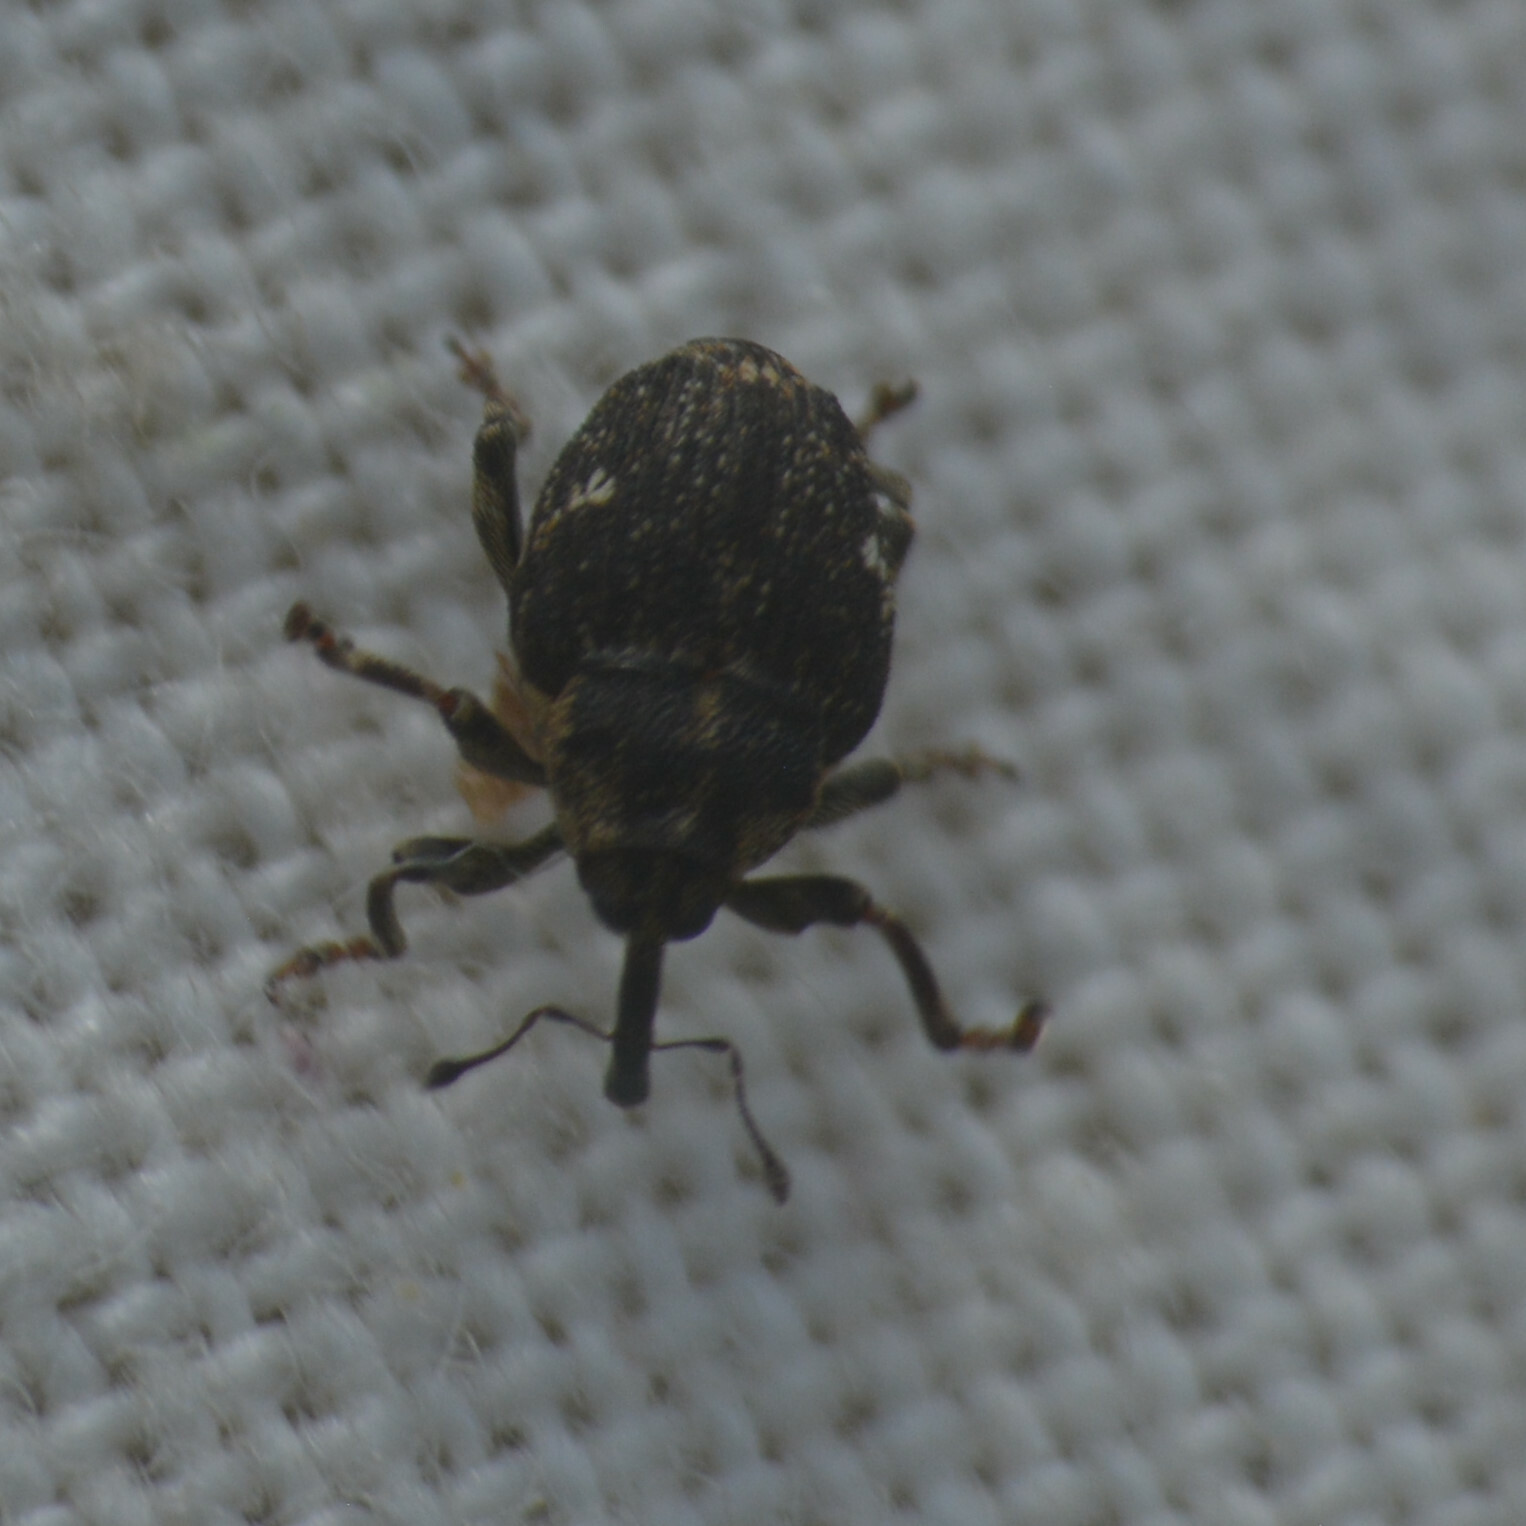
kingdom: Animalia
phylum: Arthropoda
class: Insecta
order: Coleoptera
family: Curculionidae
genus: Nedyus
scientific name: Nedyus quadrimaculatus
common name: Small nettle weevil
